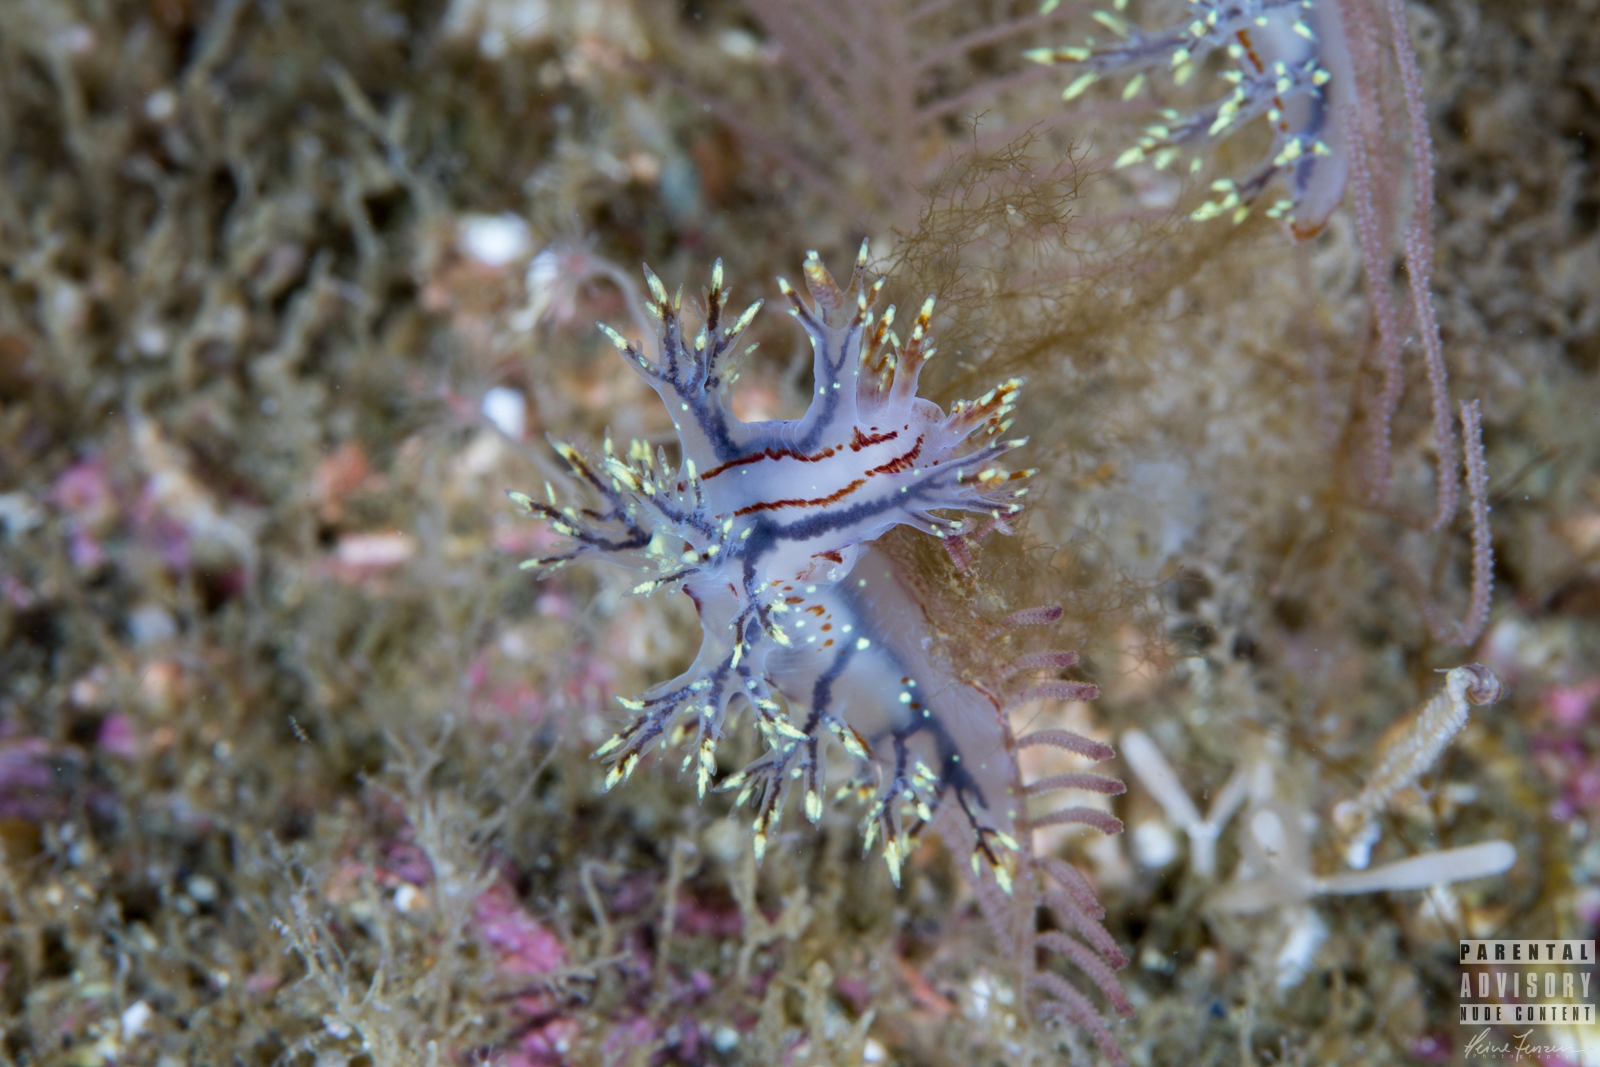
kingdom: Animalia
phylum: Mollusca
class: Gastropoda
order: Nudibranchia
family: Dendronotidae
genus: Dendronotus
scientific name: Dendronotus yrjargul
